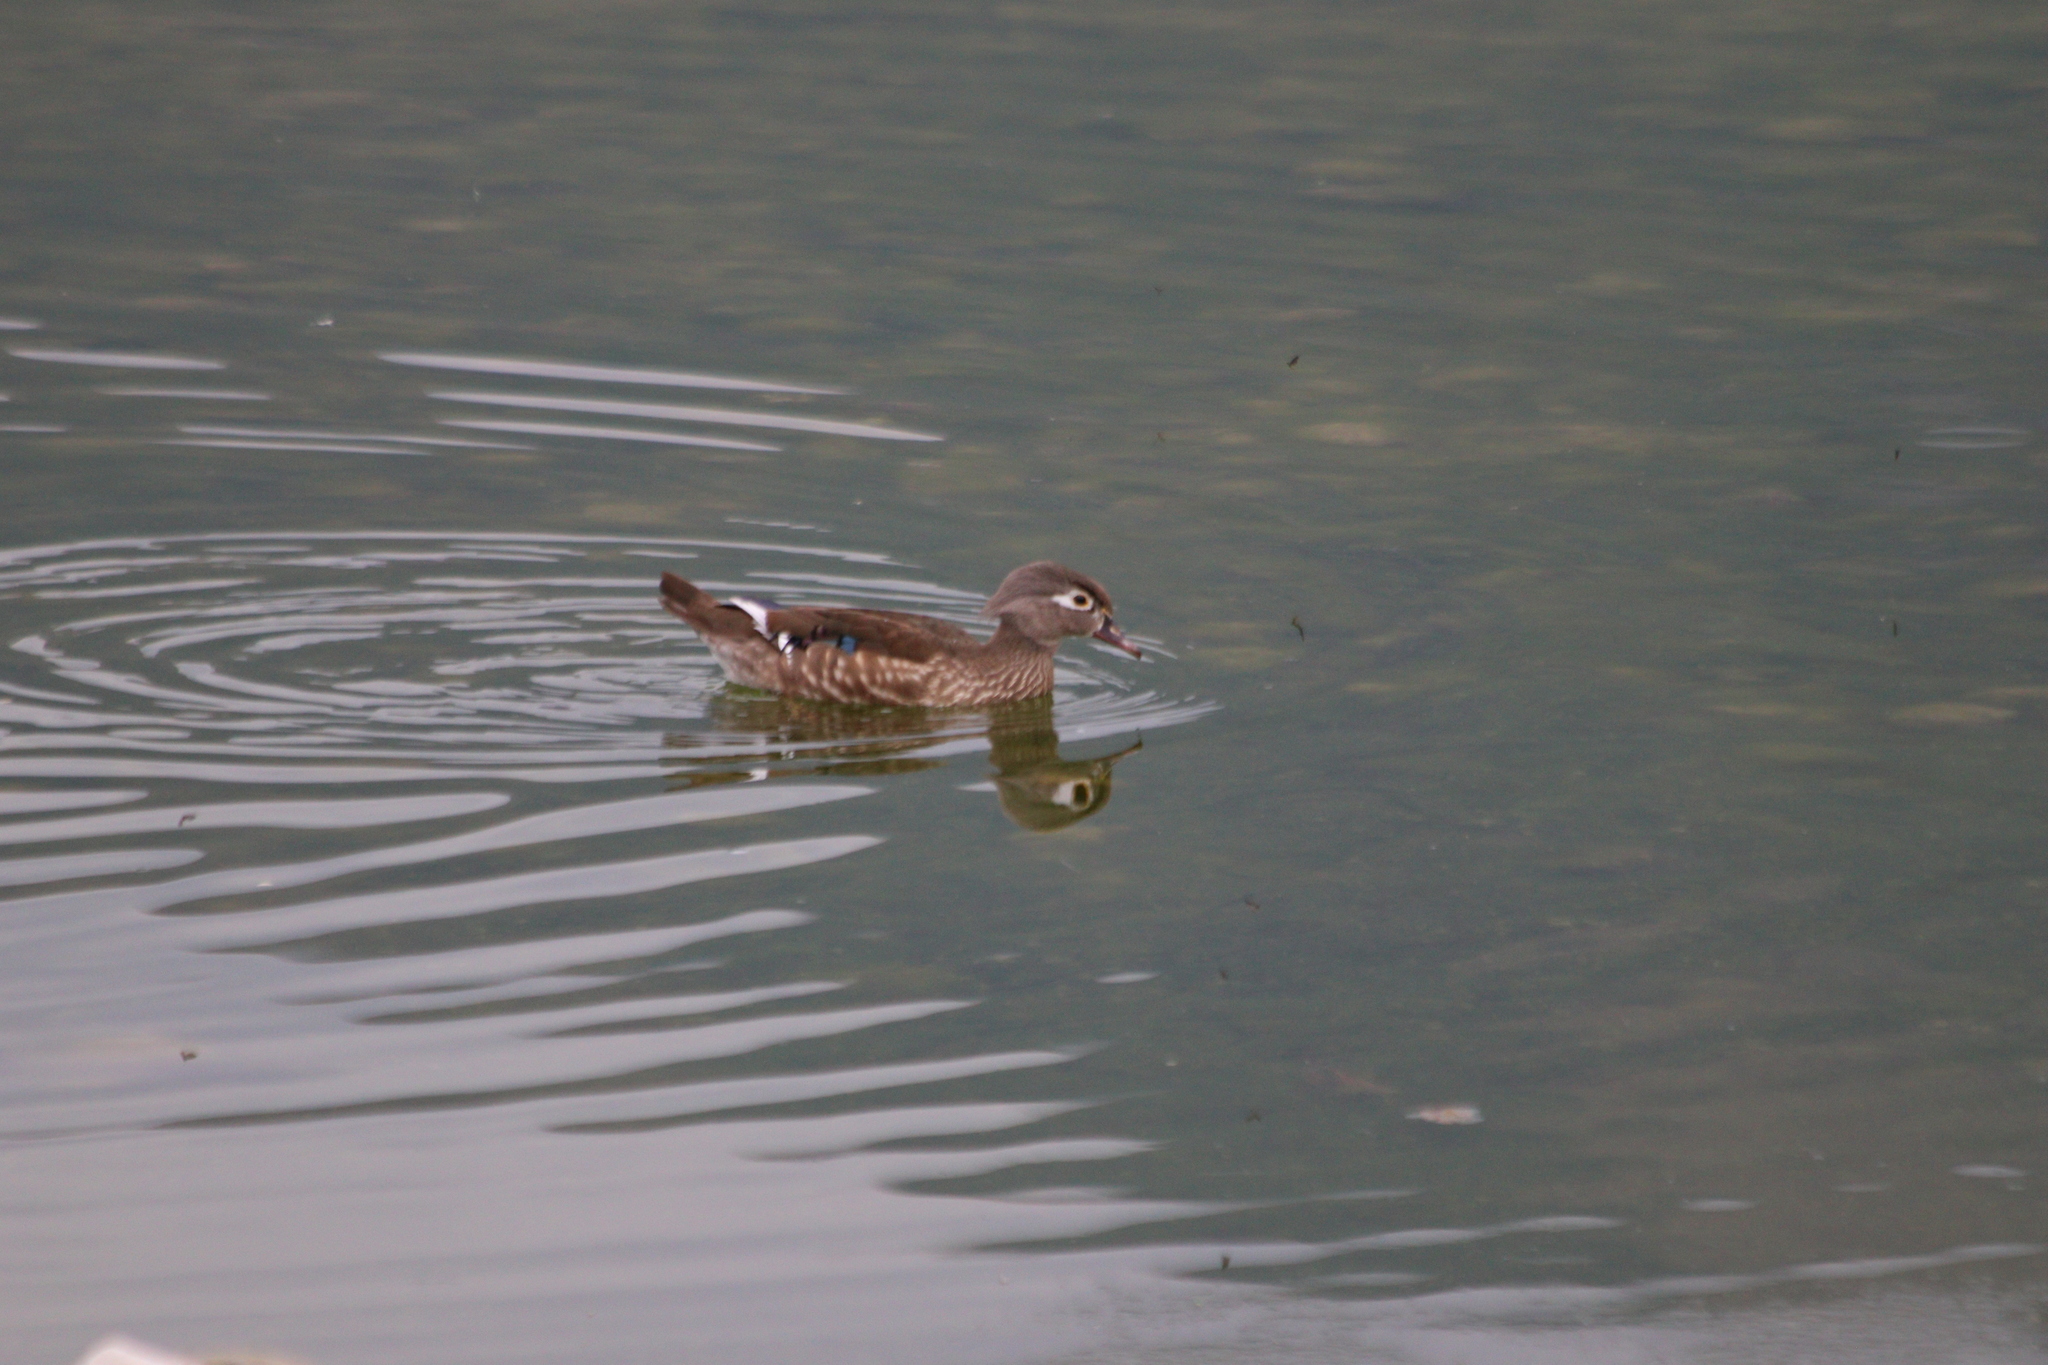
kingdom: Animalia
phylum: Chordata
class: Aves
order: Anseriformes
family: Anatidae
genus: Aix
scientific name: Aix sponsa
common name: Wood duck
